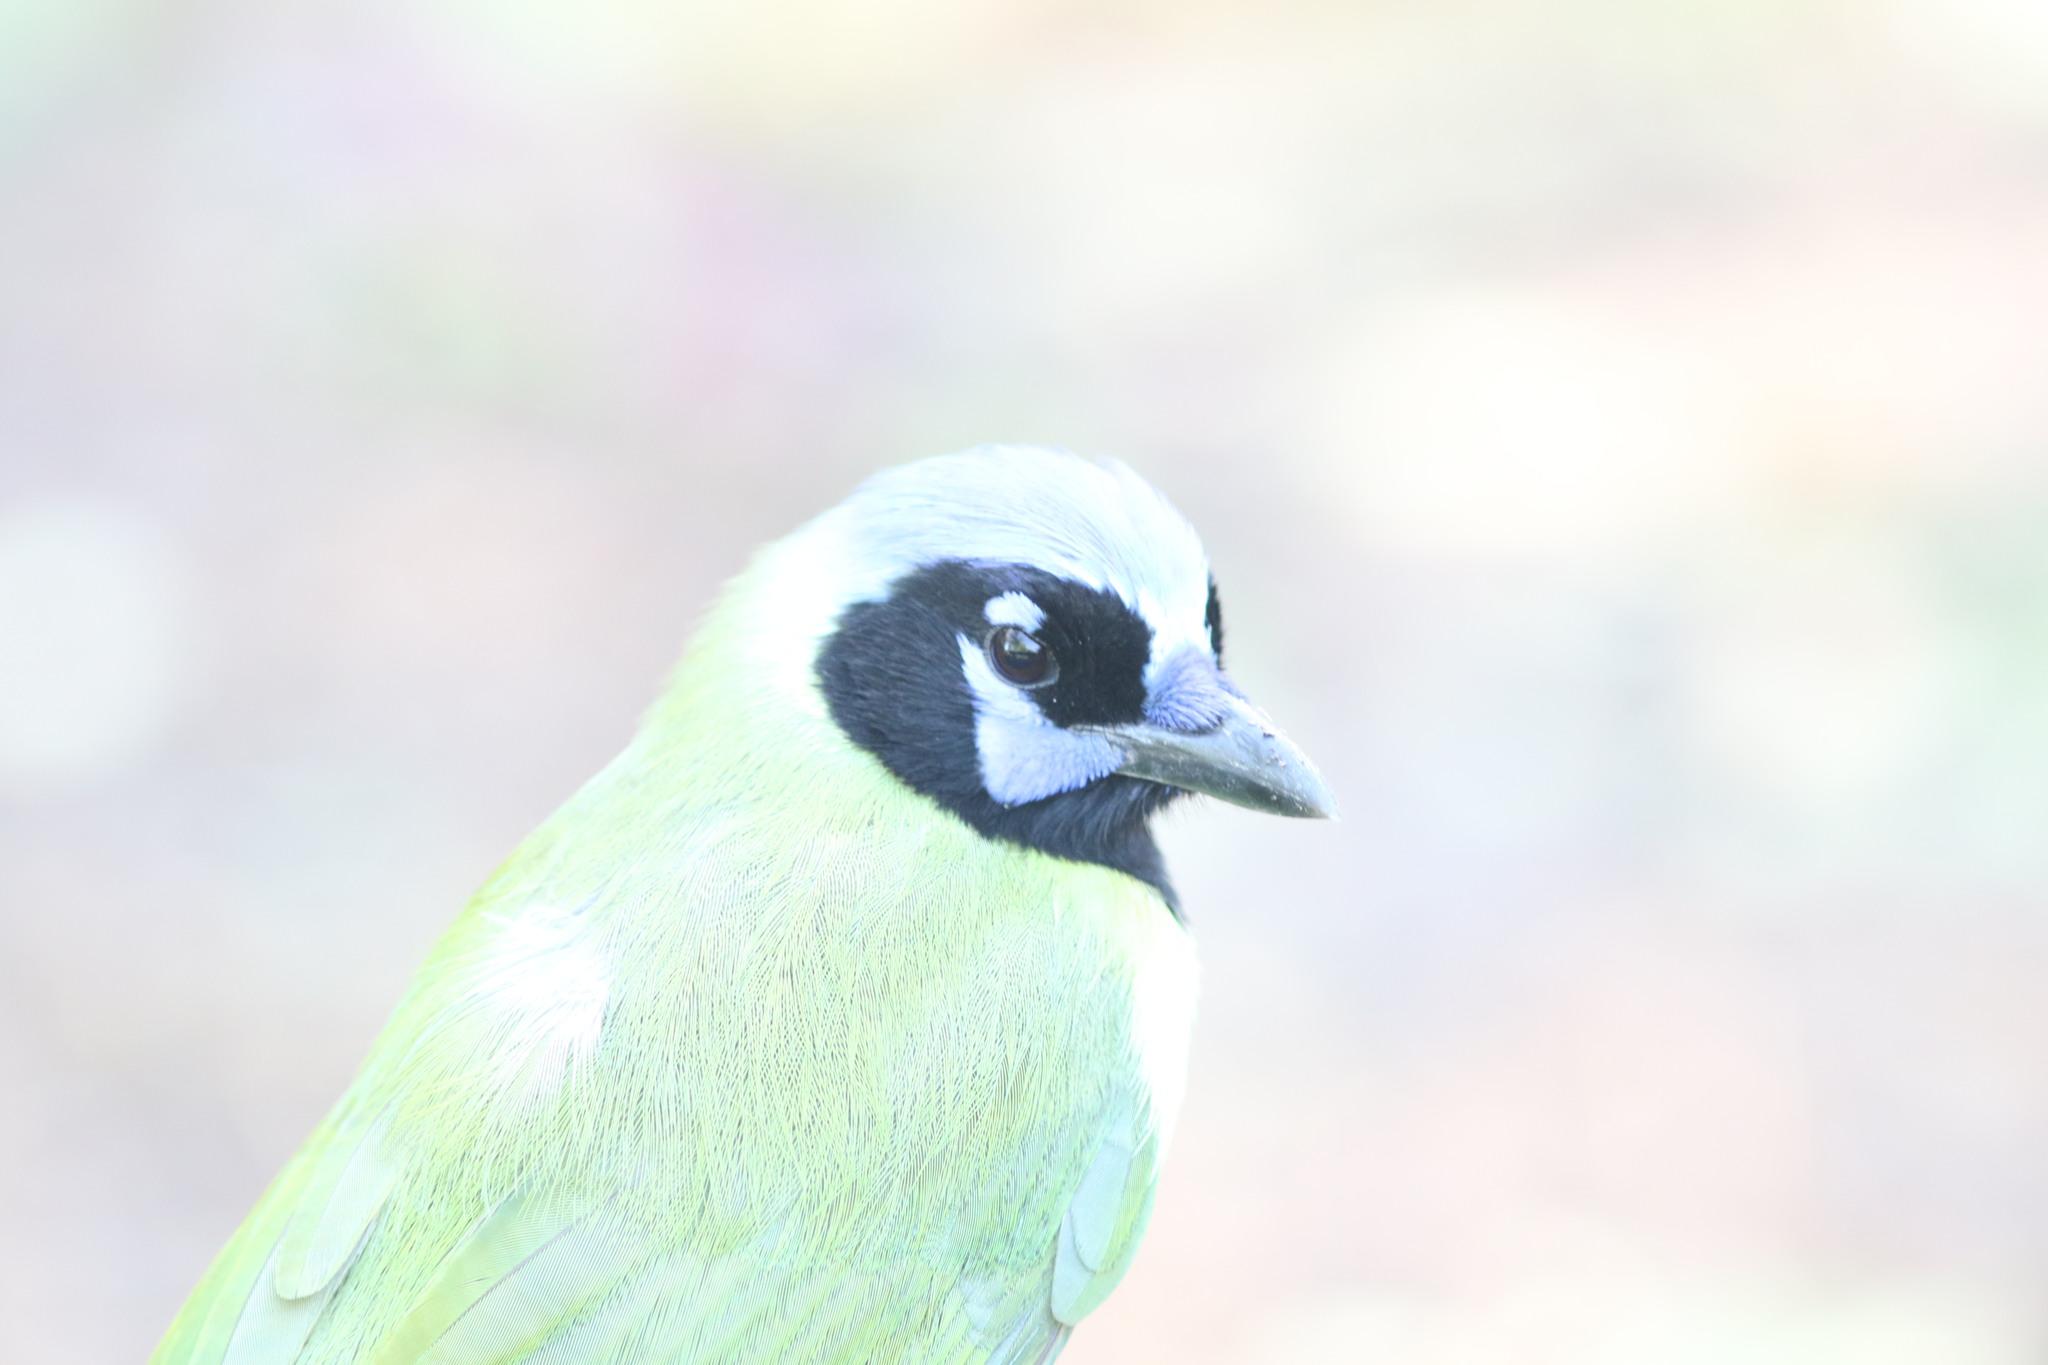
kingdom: Animalia
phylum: Chordata
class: Aves
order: Passeriformes
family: Corvidae
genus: Cyanocorax
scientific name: Cyanocorax yncas
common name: Green jay
